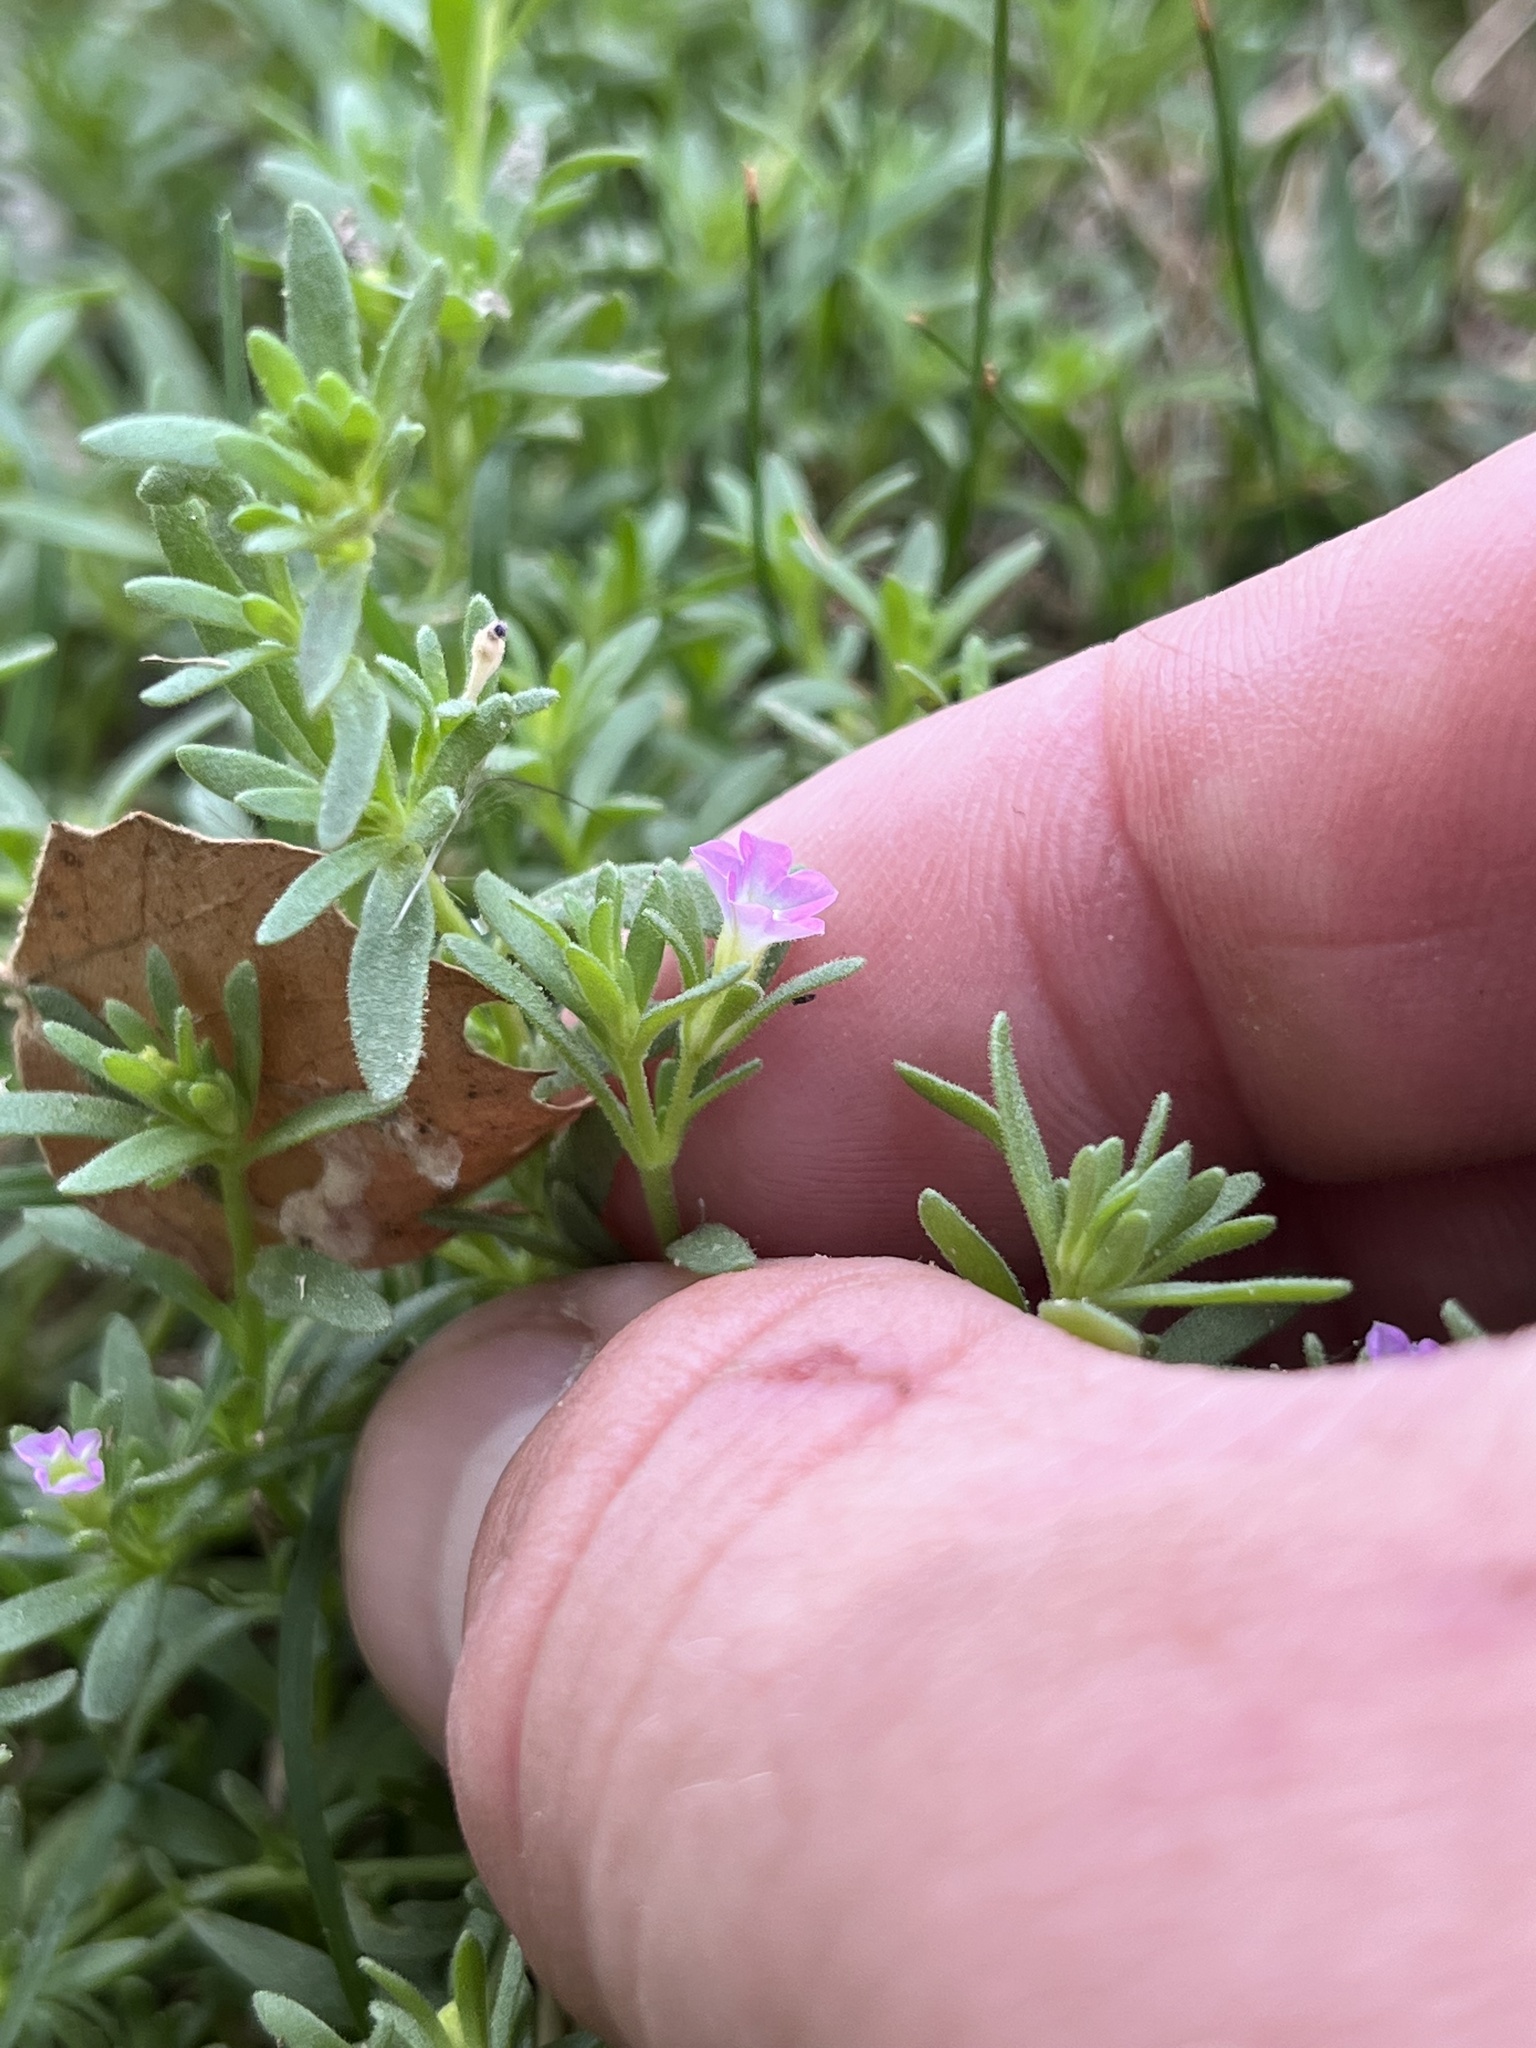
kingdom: Plantae
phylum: Tracheophyta
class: Magnoliopsida
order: Solanales
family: Solanaceae
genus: Calibrachoa
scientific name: Calibrachoa parviflora
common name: Seaside petunia
